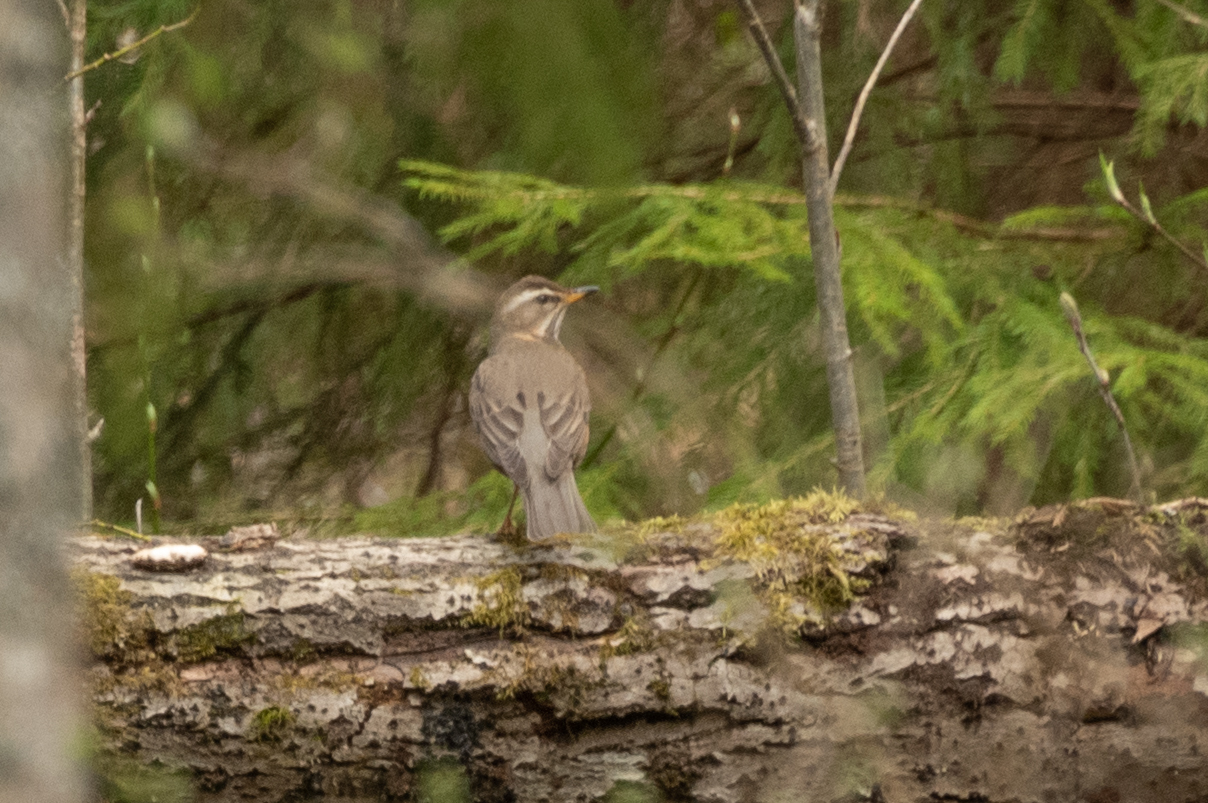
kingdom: Animalia
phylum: Chordata
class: Aves
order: Passeriformes
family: Turdidae
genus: Turdus
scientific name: Turdus iliacus
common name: Redwing
